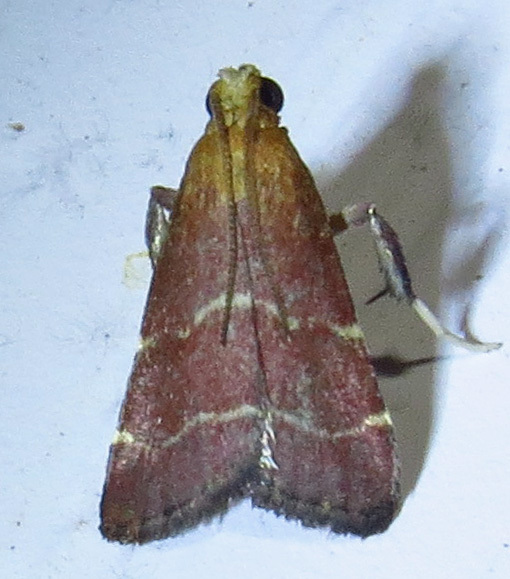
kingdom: Animalia
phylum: Arthropoda
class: Insecta
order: Lepidoptera
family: Pyralidae
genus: Arta
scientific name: Arta statalis
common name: Posturing arta moth
